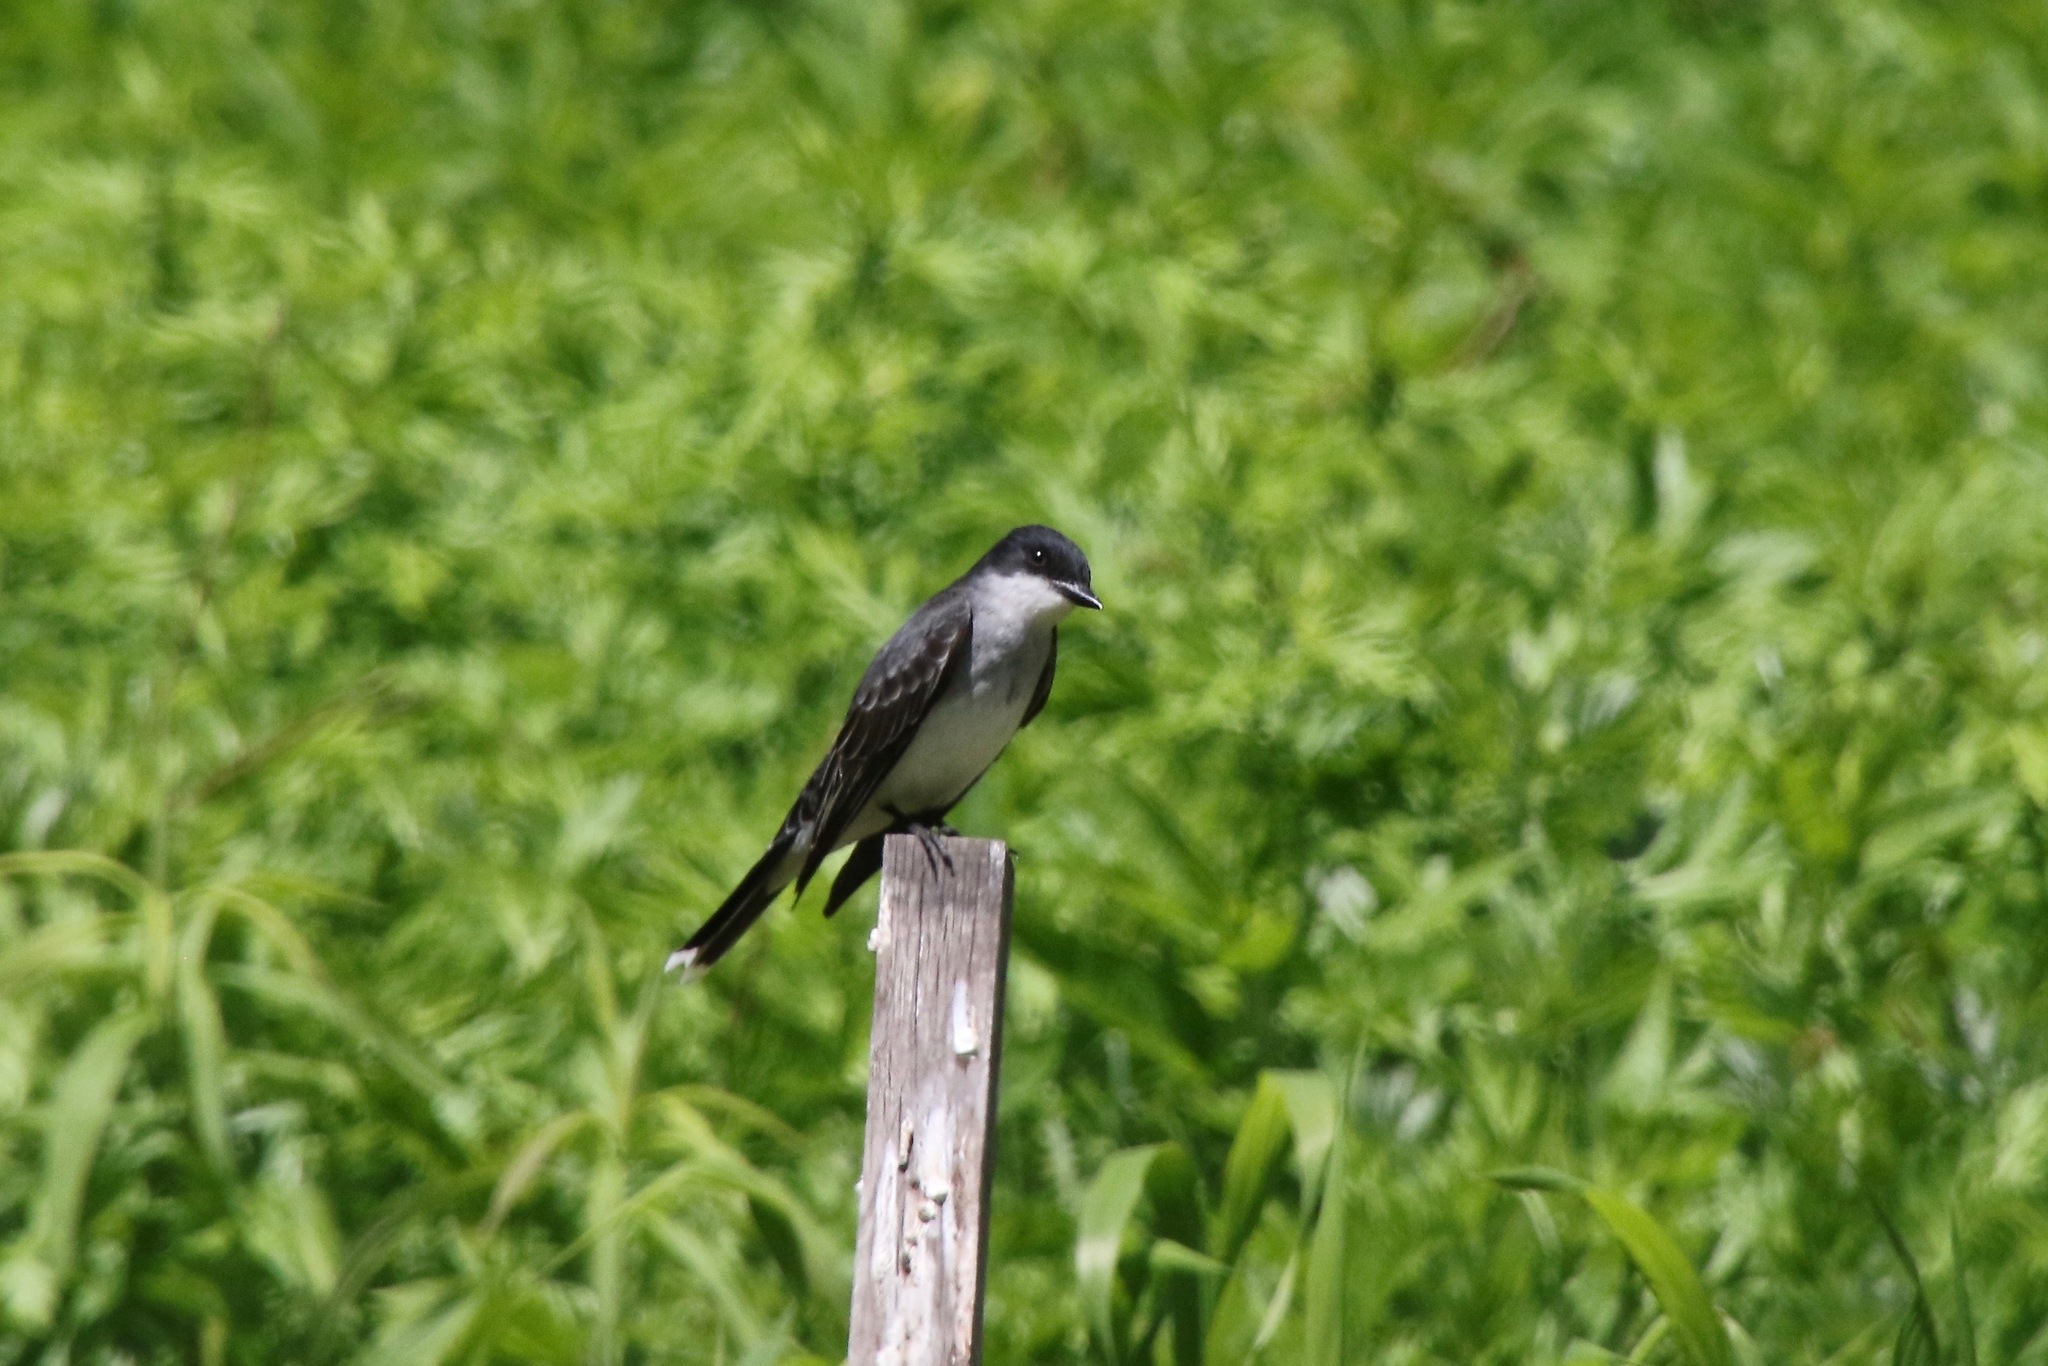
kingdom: Animalia
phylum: Chordata
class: Aves
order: Passeriformes
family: Tyrannidae
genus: Tyrannus
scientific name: Tyrannus tyrannus
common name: Eastern kingbird
